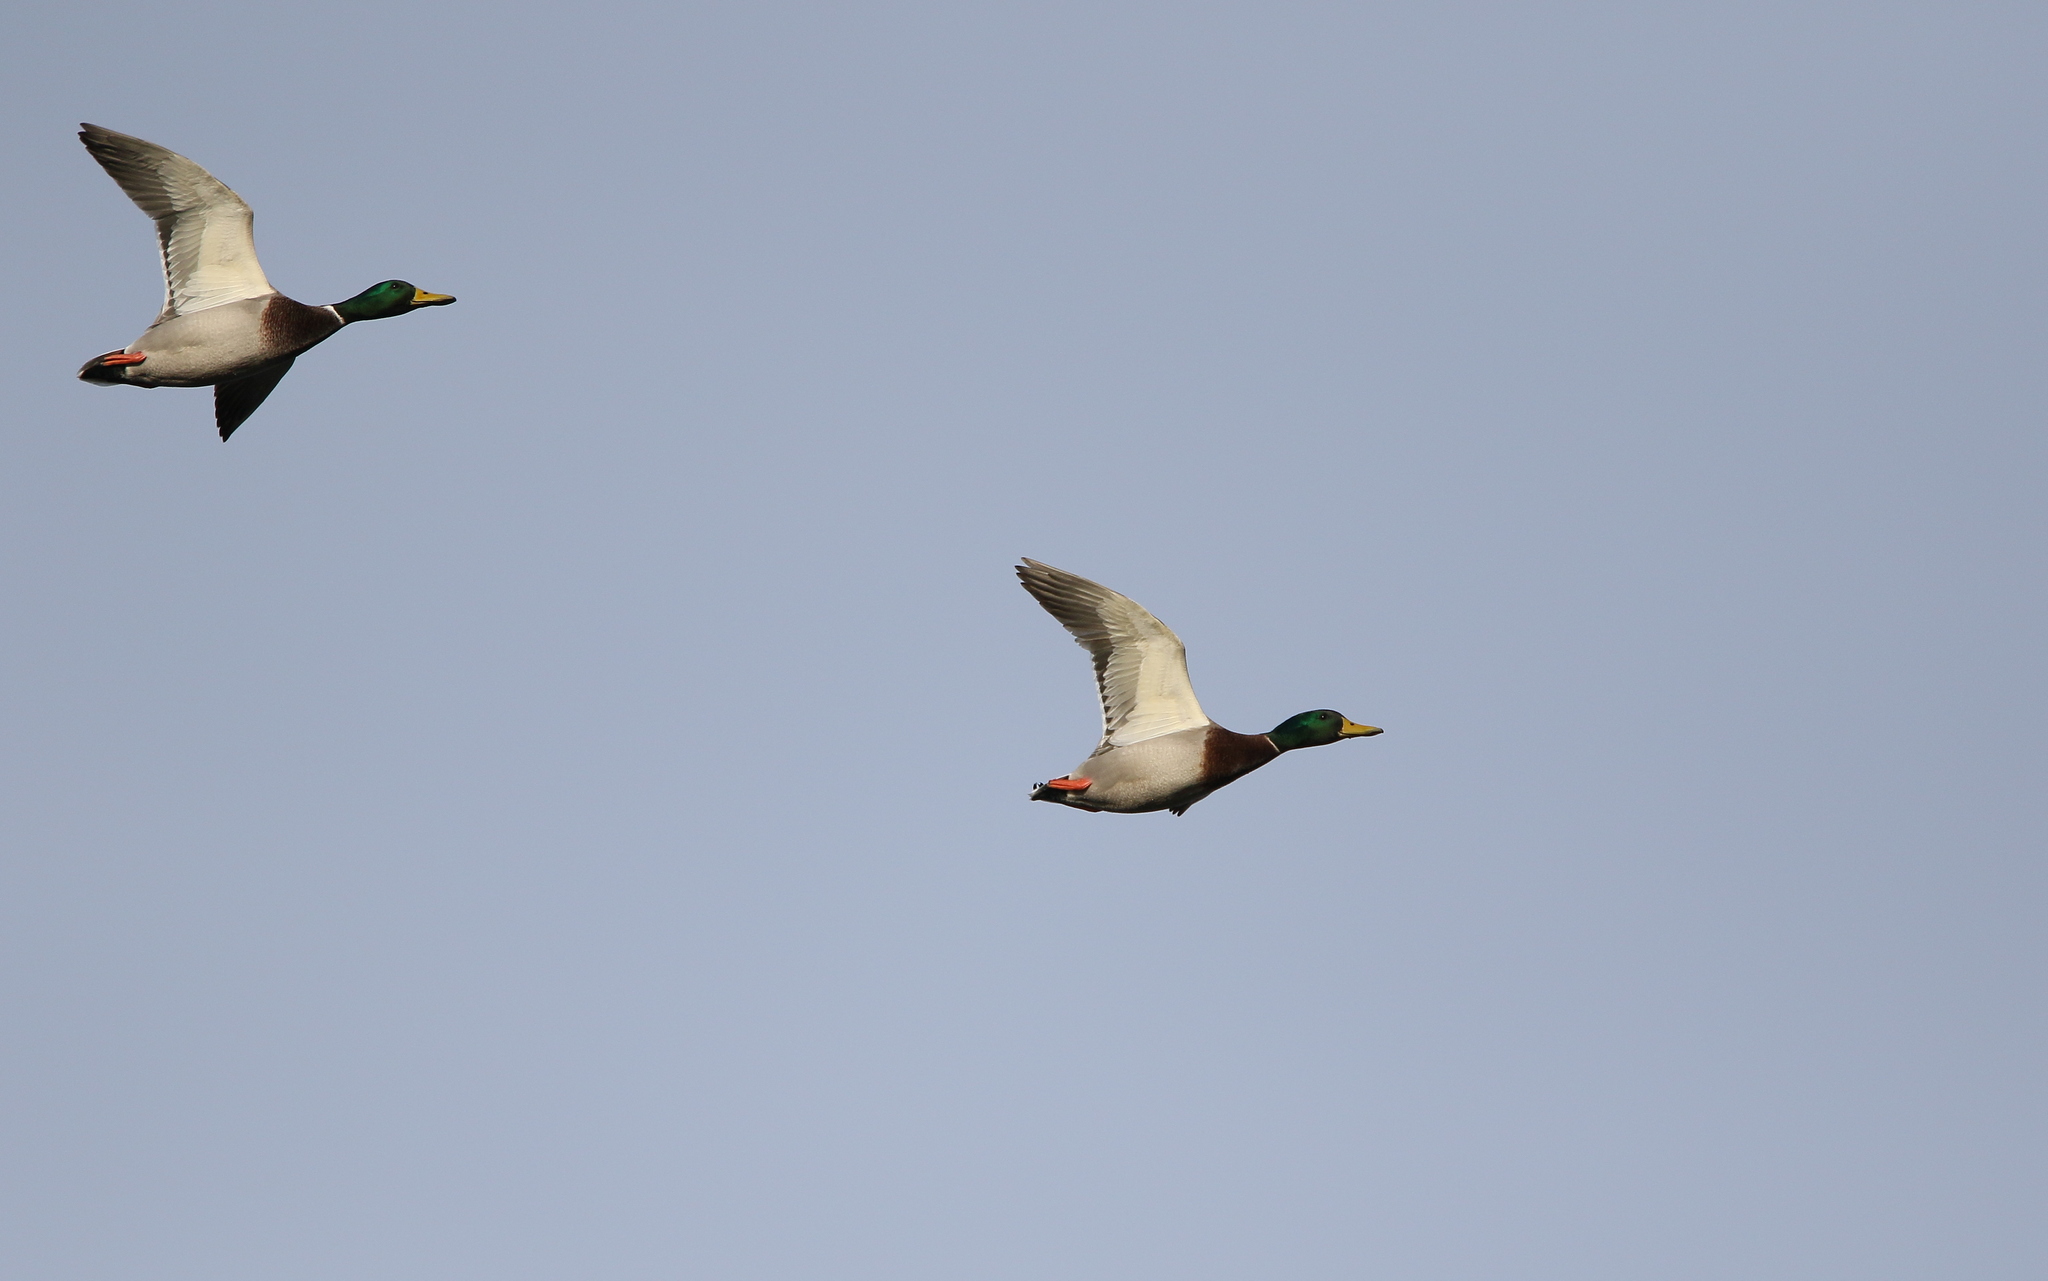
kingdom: Animalia
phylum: Chordata
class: Aves
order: Anseriformes
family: Anatidae
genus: Anas
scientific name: Anas platyrhynchos
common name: Mallard
